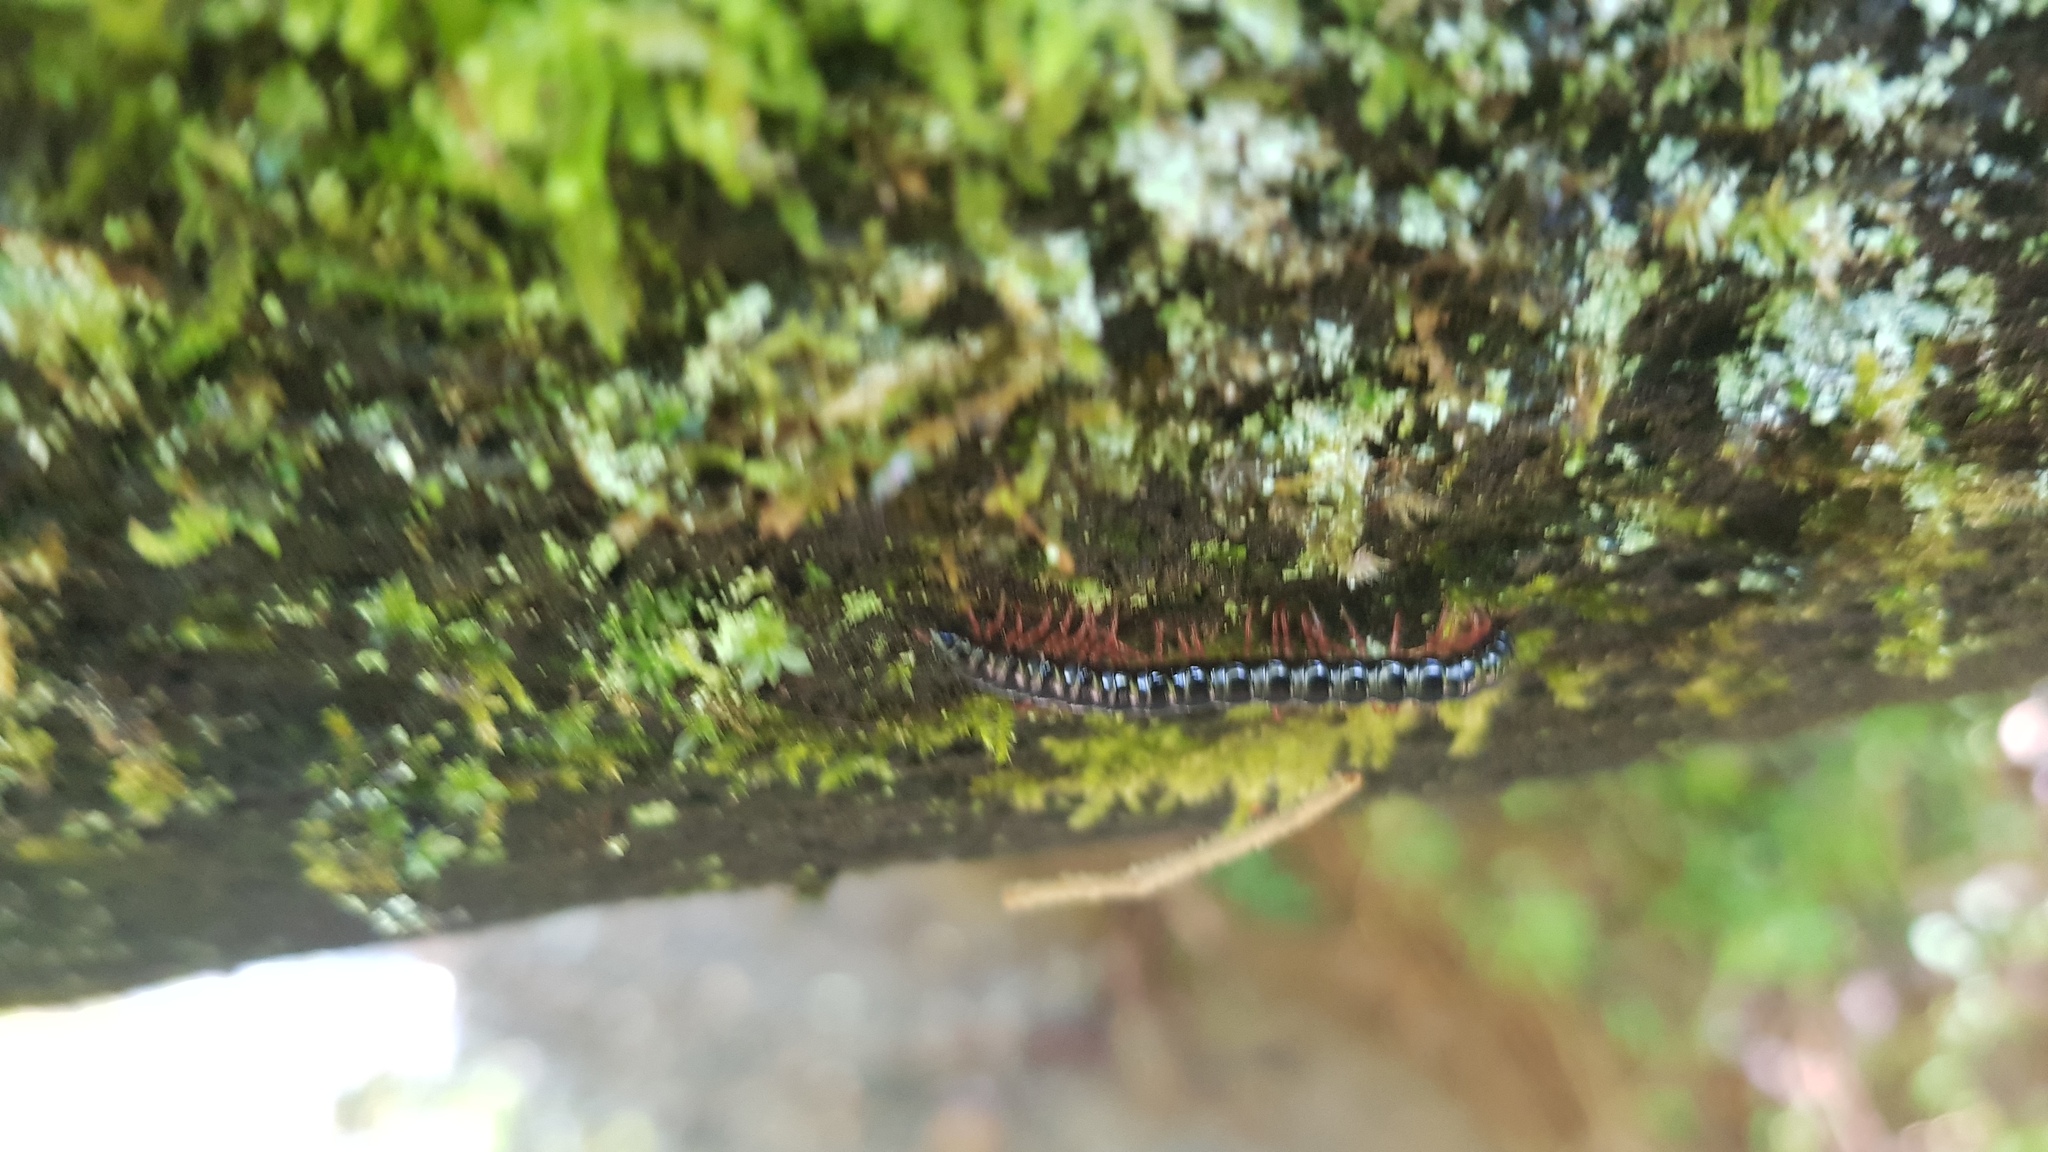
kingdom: Animalia
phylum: Arthropoda
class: Diplopoda
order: Polydesmida
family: Paradoxosomatidae
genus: Heterocladosoma
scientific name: Heterocladosoma
